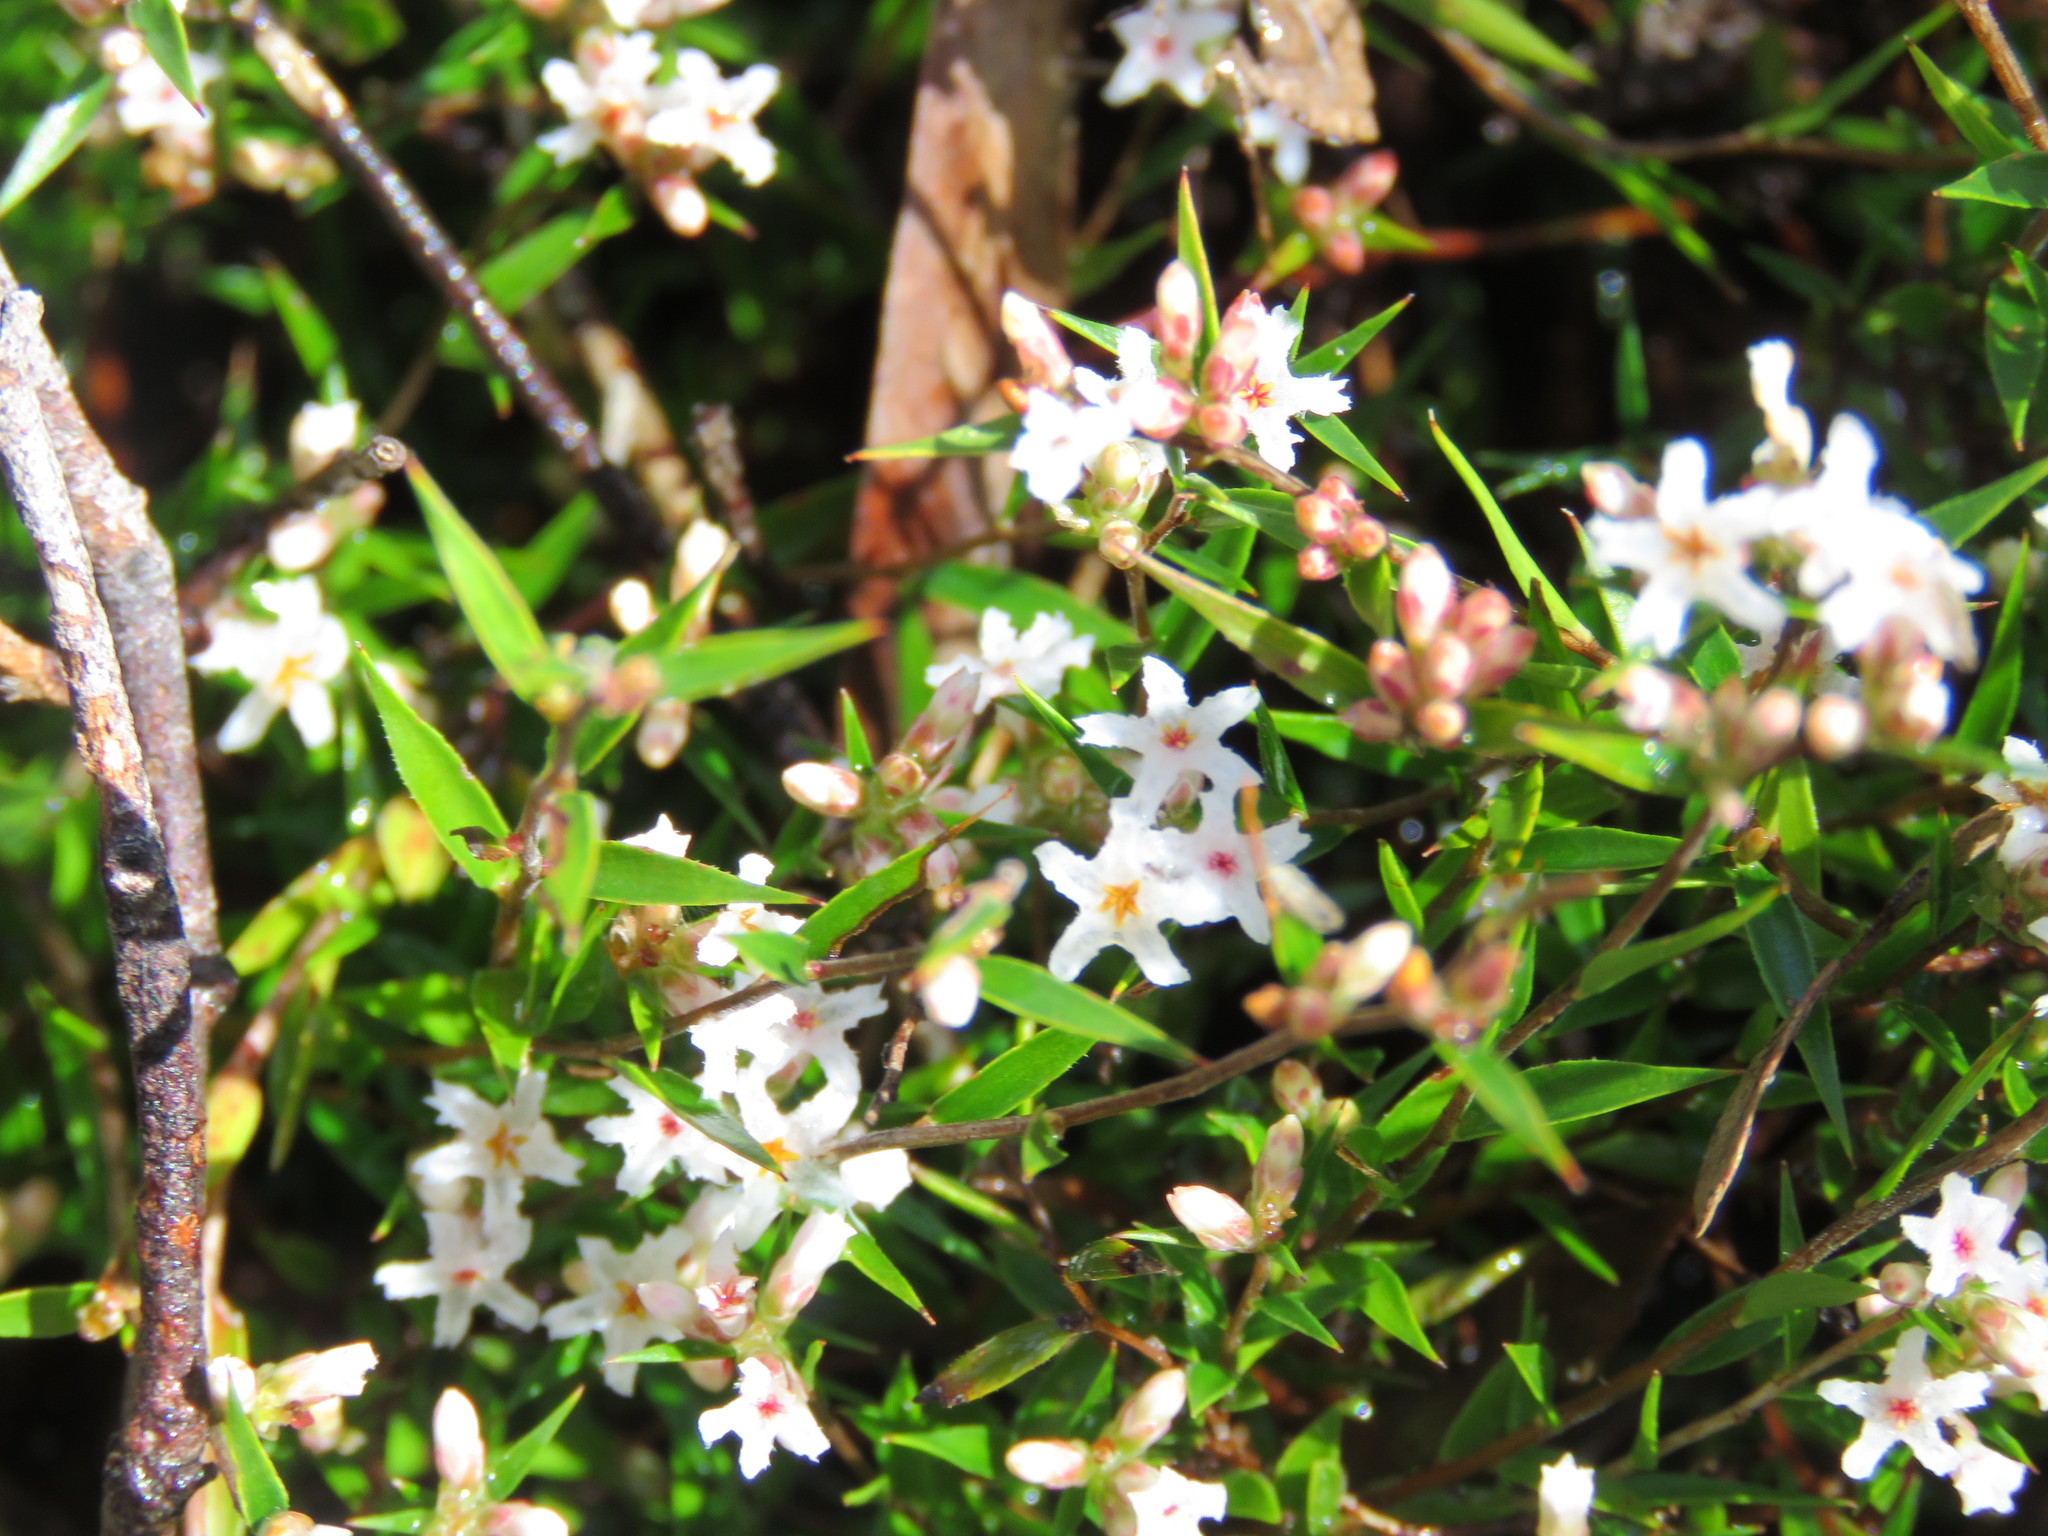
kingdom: Plantae
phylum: Tracheophyta
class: Magnoliopsida
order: Ericales
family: Ericaceae
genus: Leucopogon
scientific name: Leucopogon virgatus
